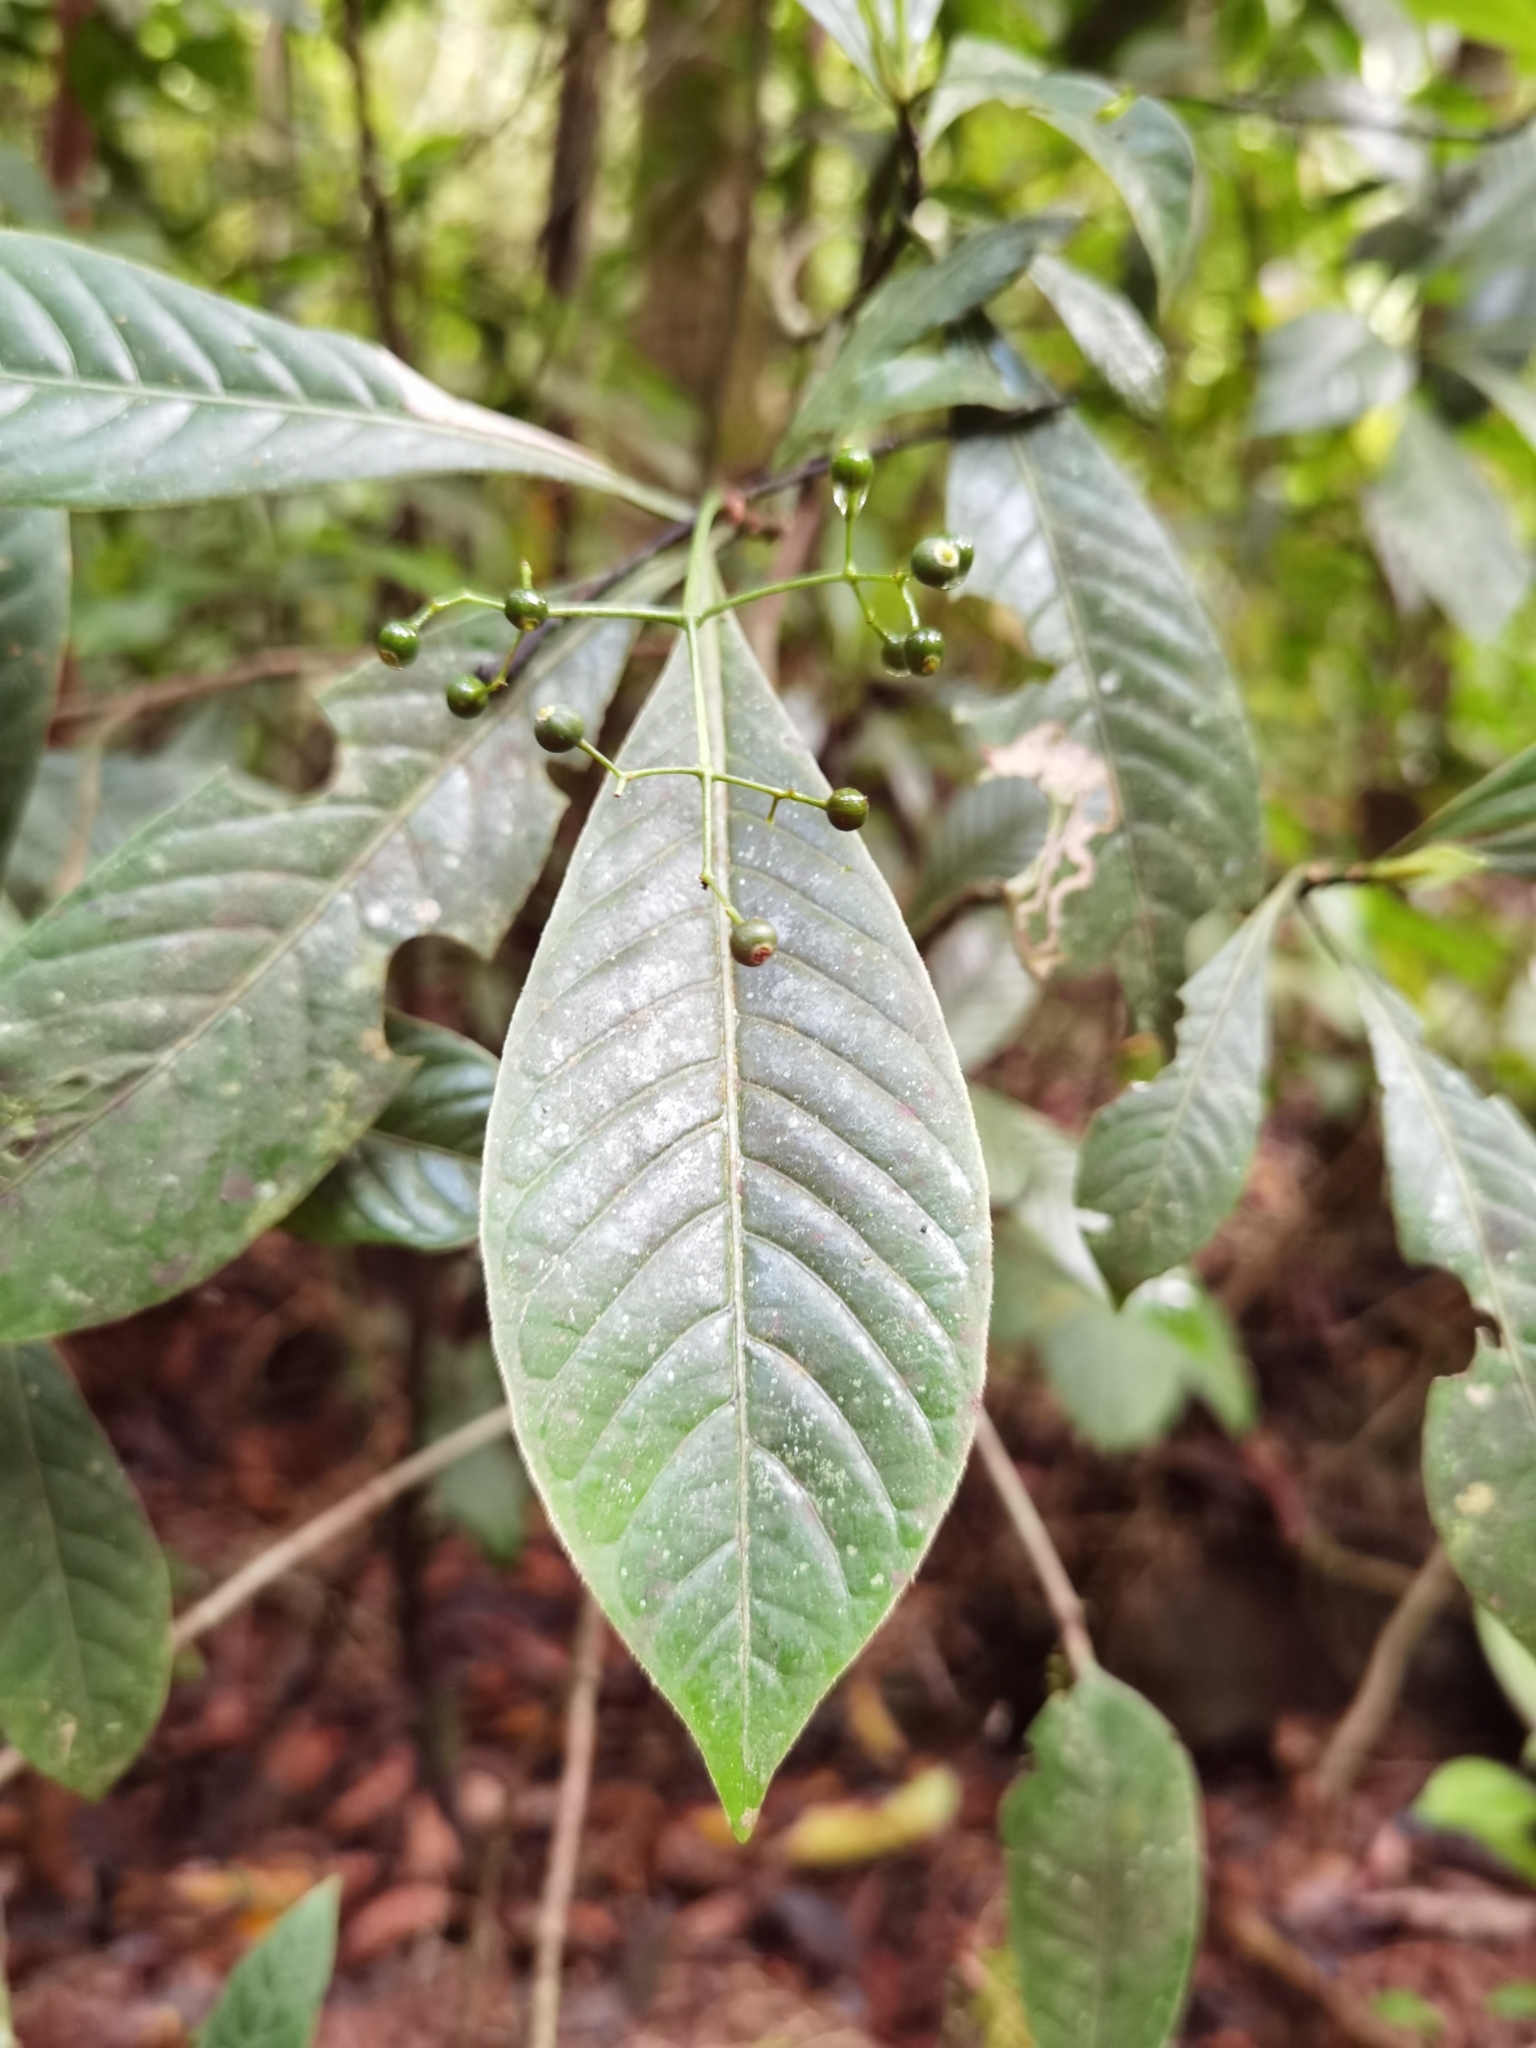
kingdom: Plantae
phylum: Tracheophyta
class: Magnoliopsida
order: Gentianales
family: Rubiaceae
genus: Psychotria
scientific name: Psychotria marginata
